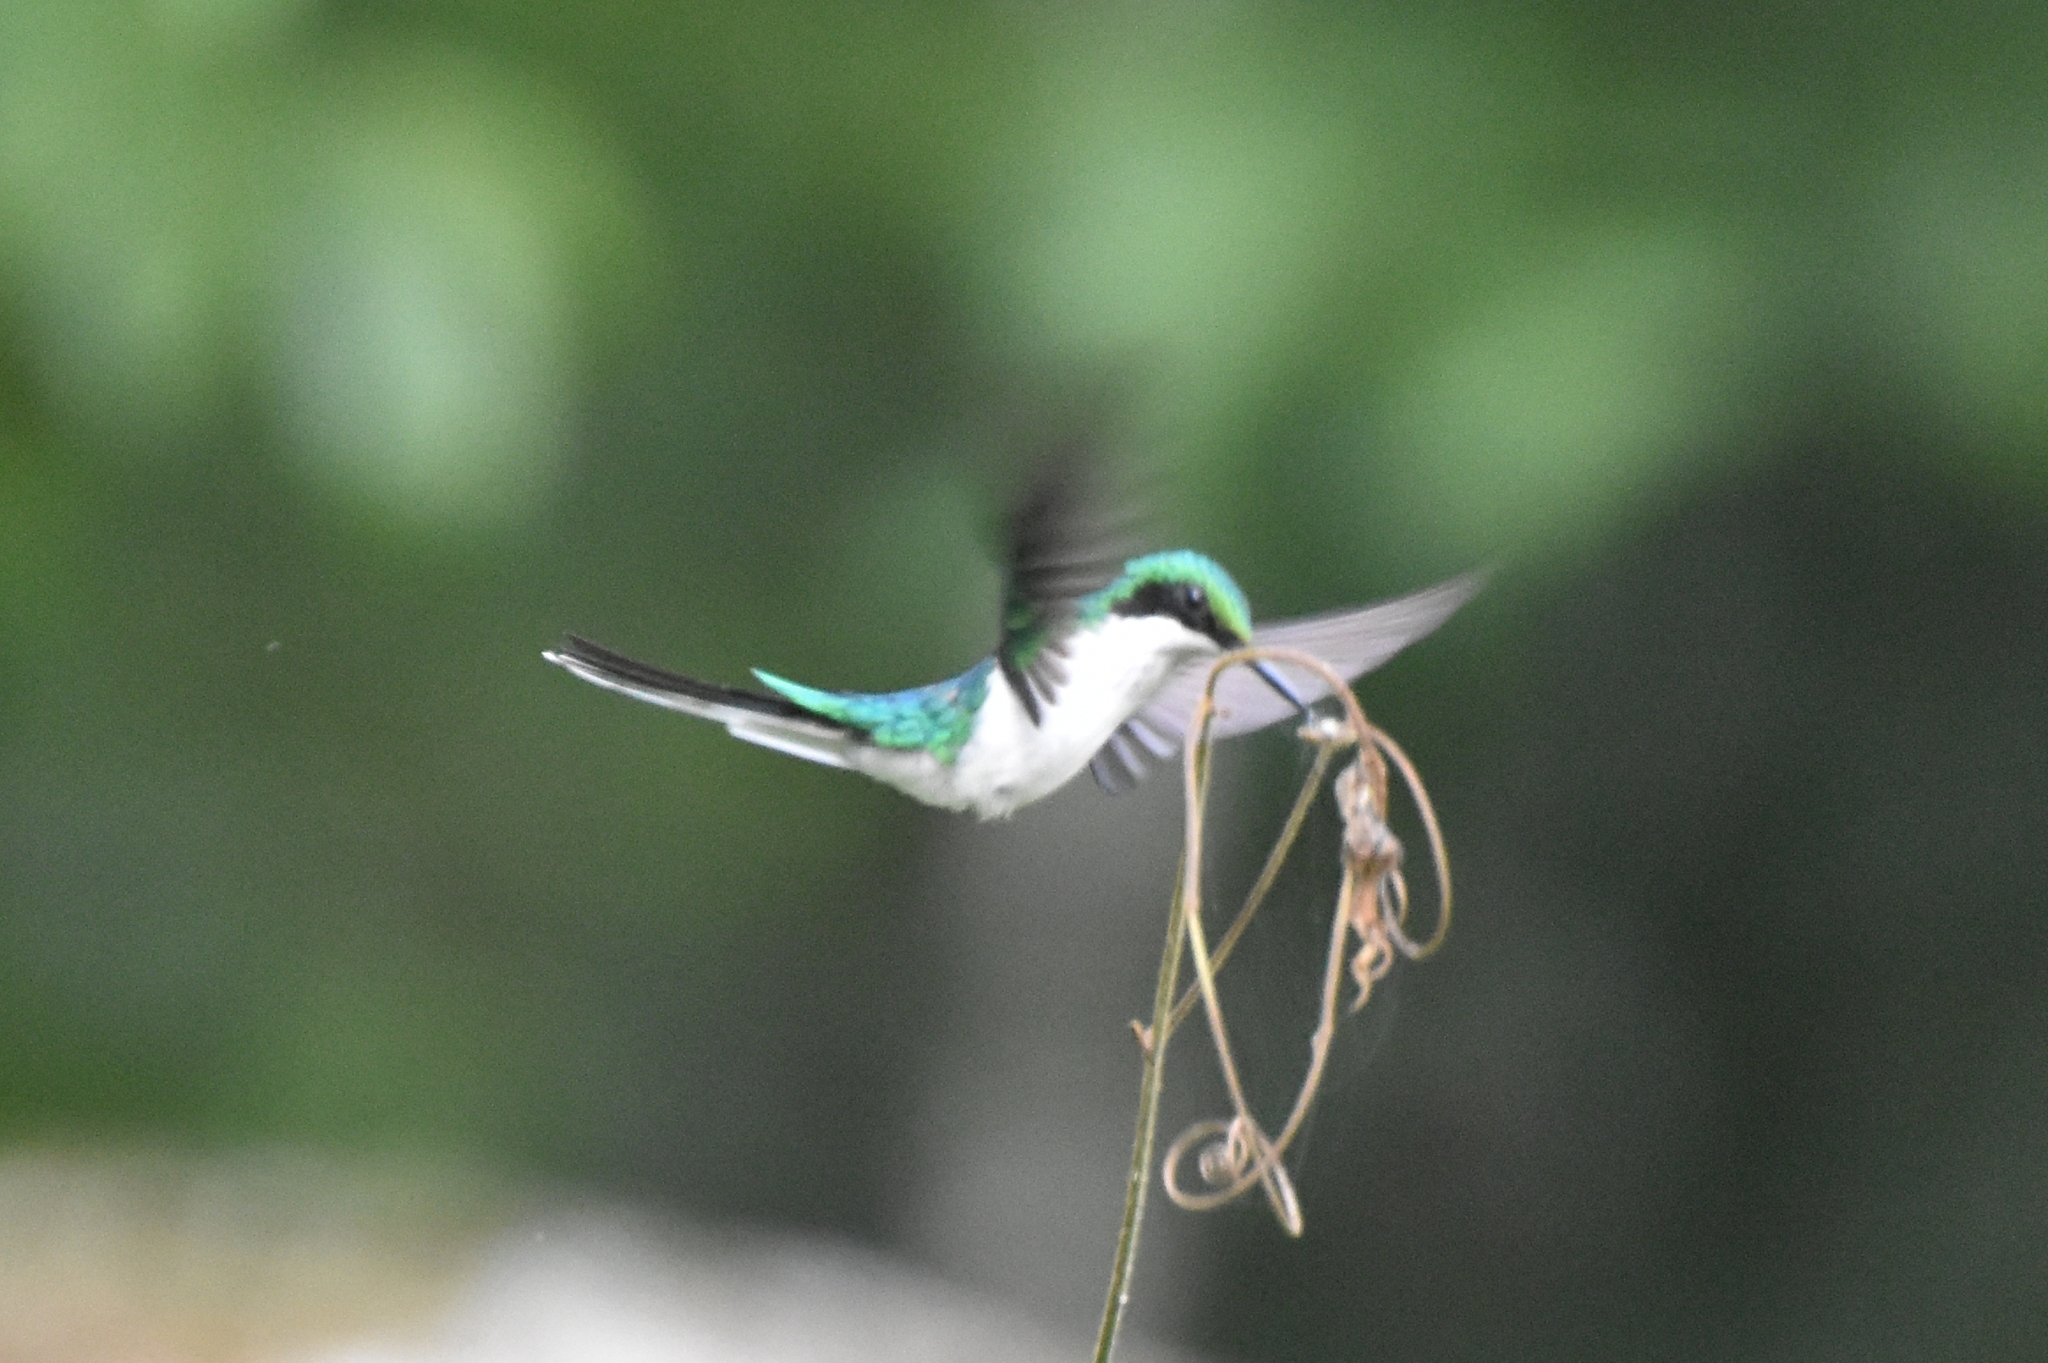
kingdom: Animalia
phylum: Chordata
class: Aves
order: Apodiformes
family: Trochilidae
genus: Heliothryx
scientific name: Heliothryx barroti
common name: Purple-crowned fairy
